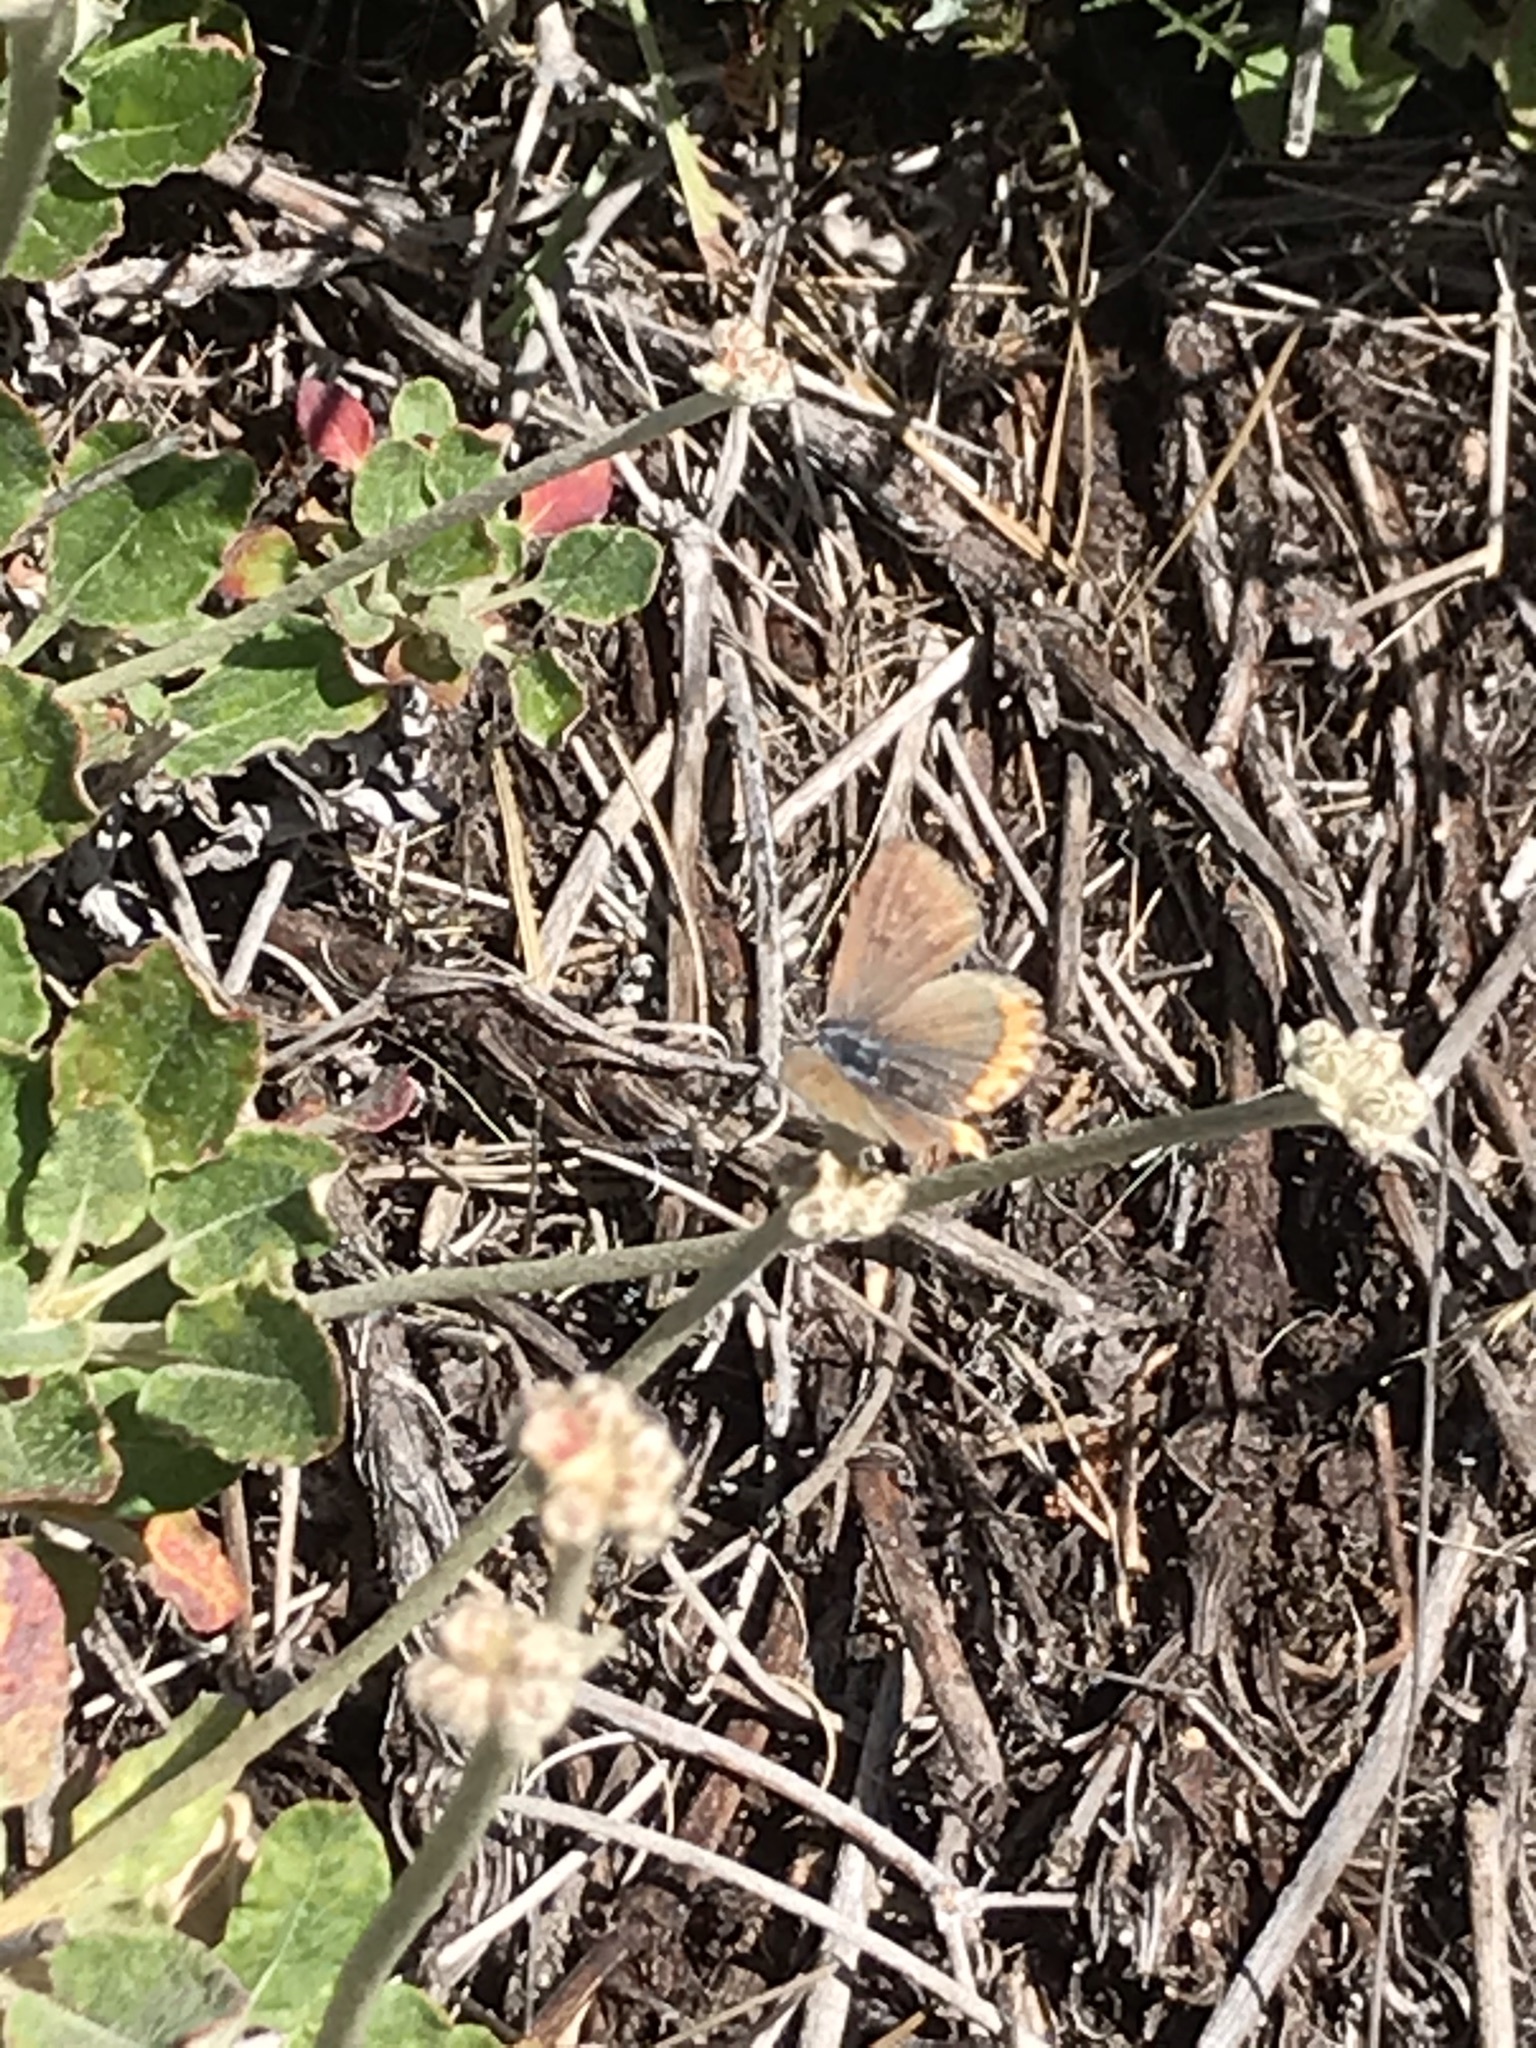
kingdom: Animalia
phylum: Arthropoda
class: Insecta
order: Lepidoptera
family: Lycaenidae
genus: Icaricia
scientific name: Icaricia acmon
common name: Acmon blue
